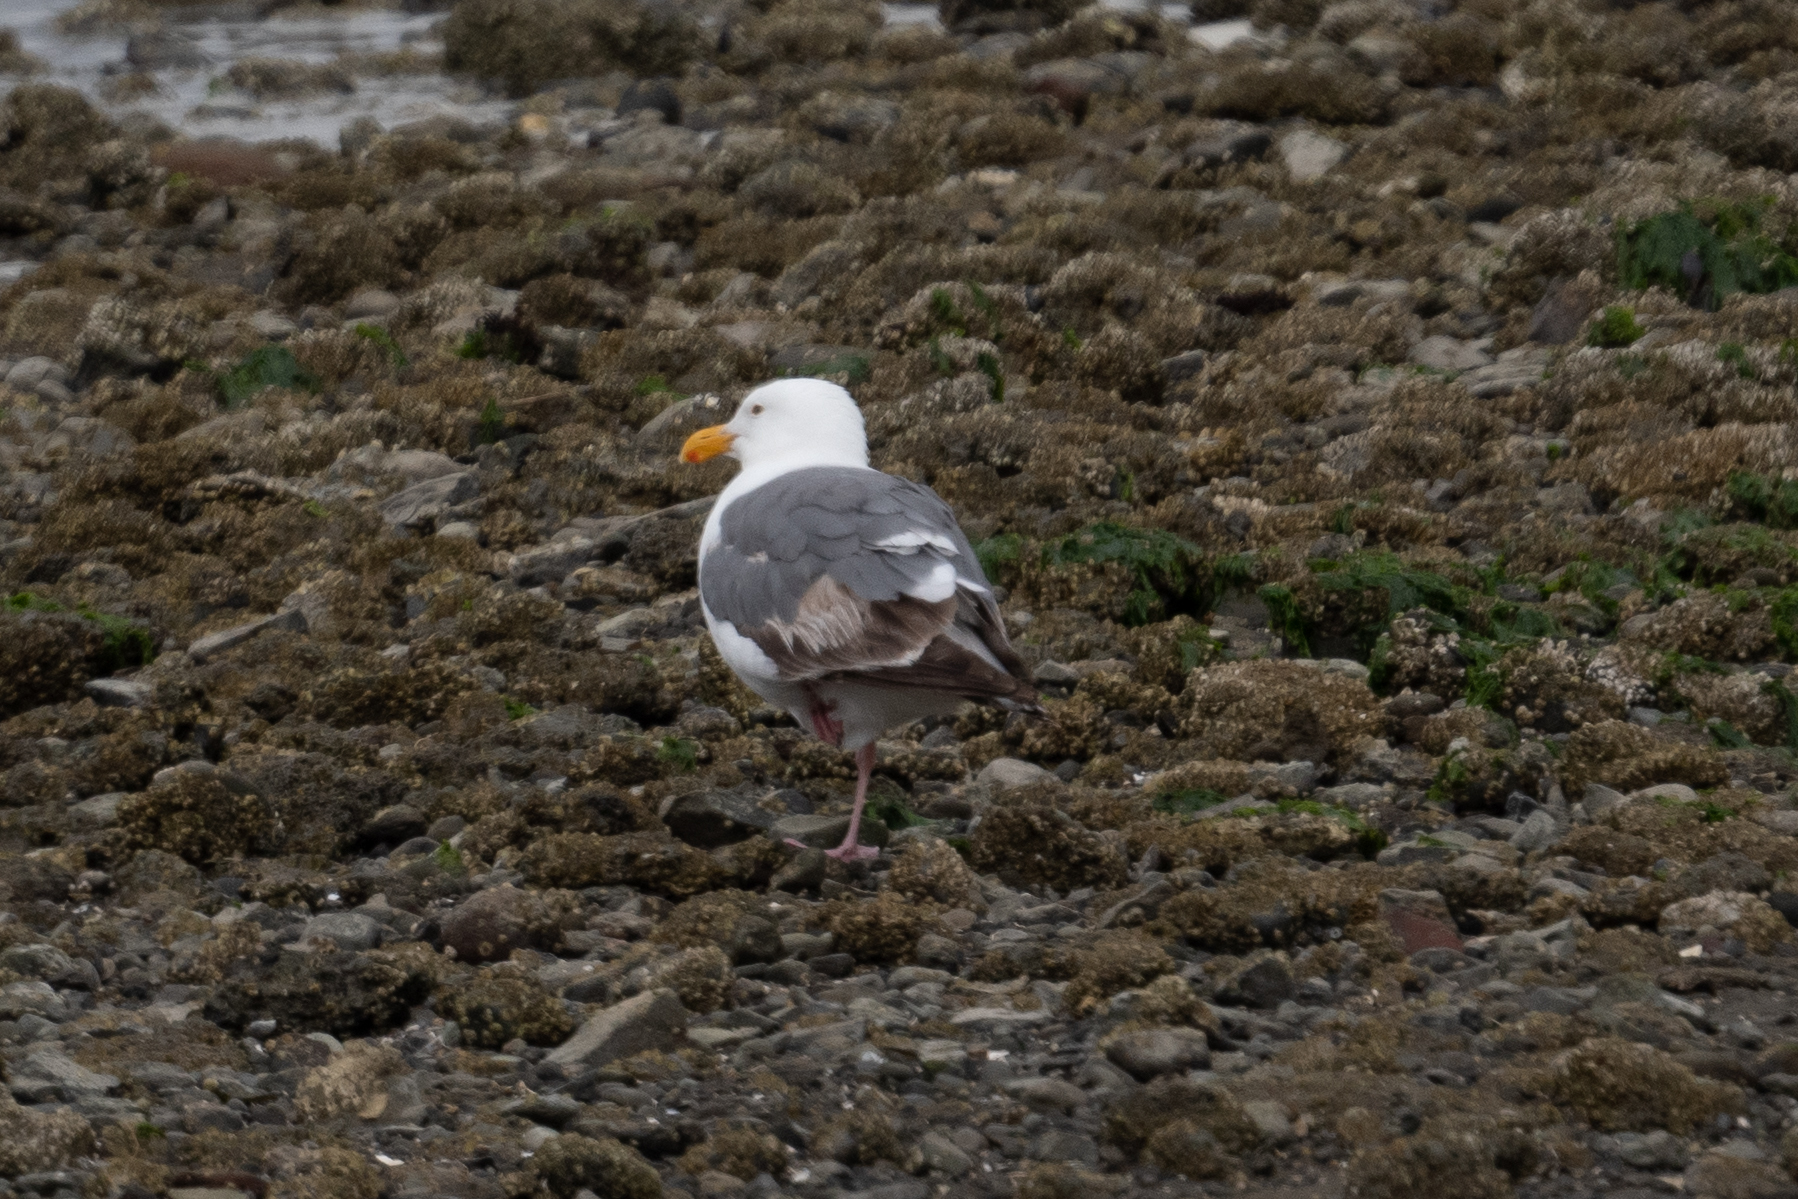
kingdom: Animalia
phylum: Chordata
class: Aves
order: Charadriiformes
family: Laridae
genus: Larus
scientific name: Larus occidentalis
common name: Western gull
